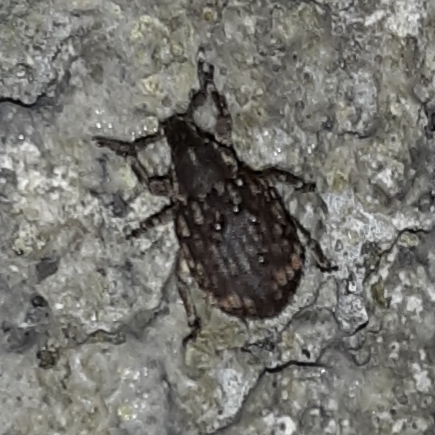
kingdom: Animalia
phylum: Arthropoda
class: Insecta
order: Coleoptera
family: Curculionidae
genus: Romualdius
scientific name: Romualdius scaber
